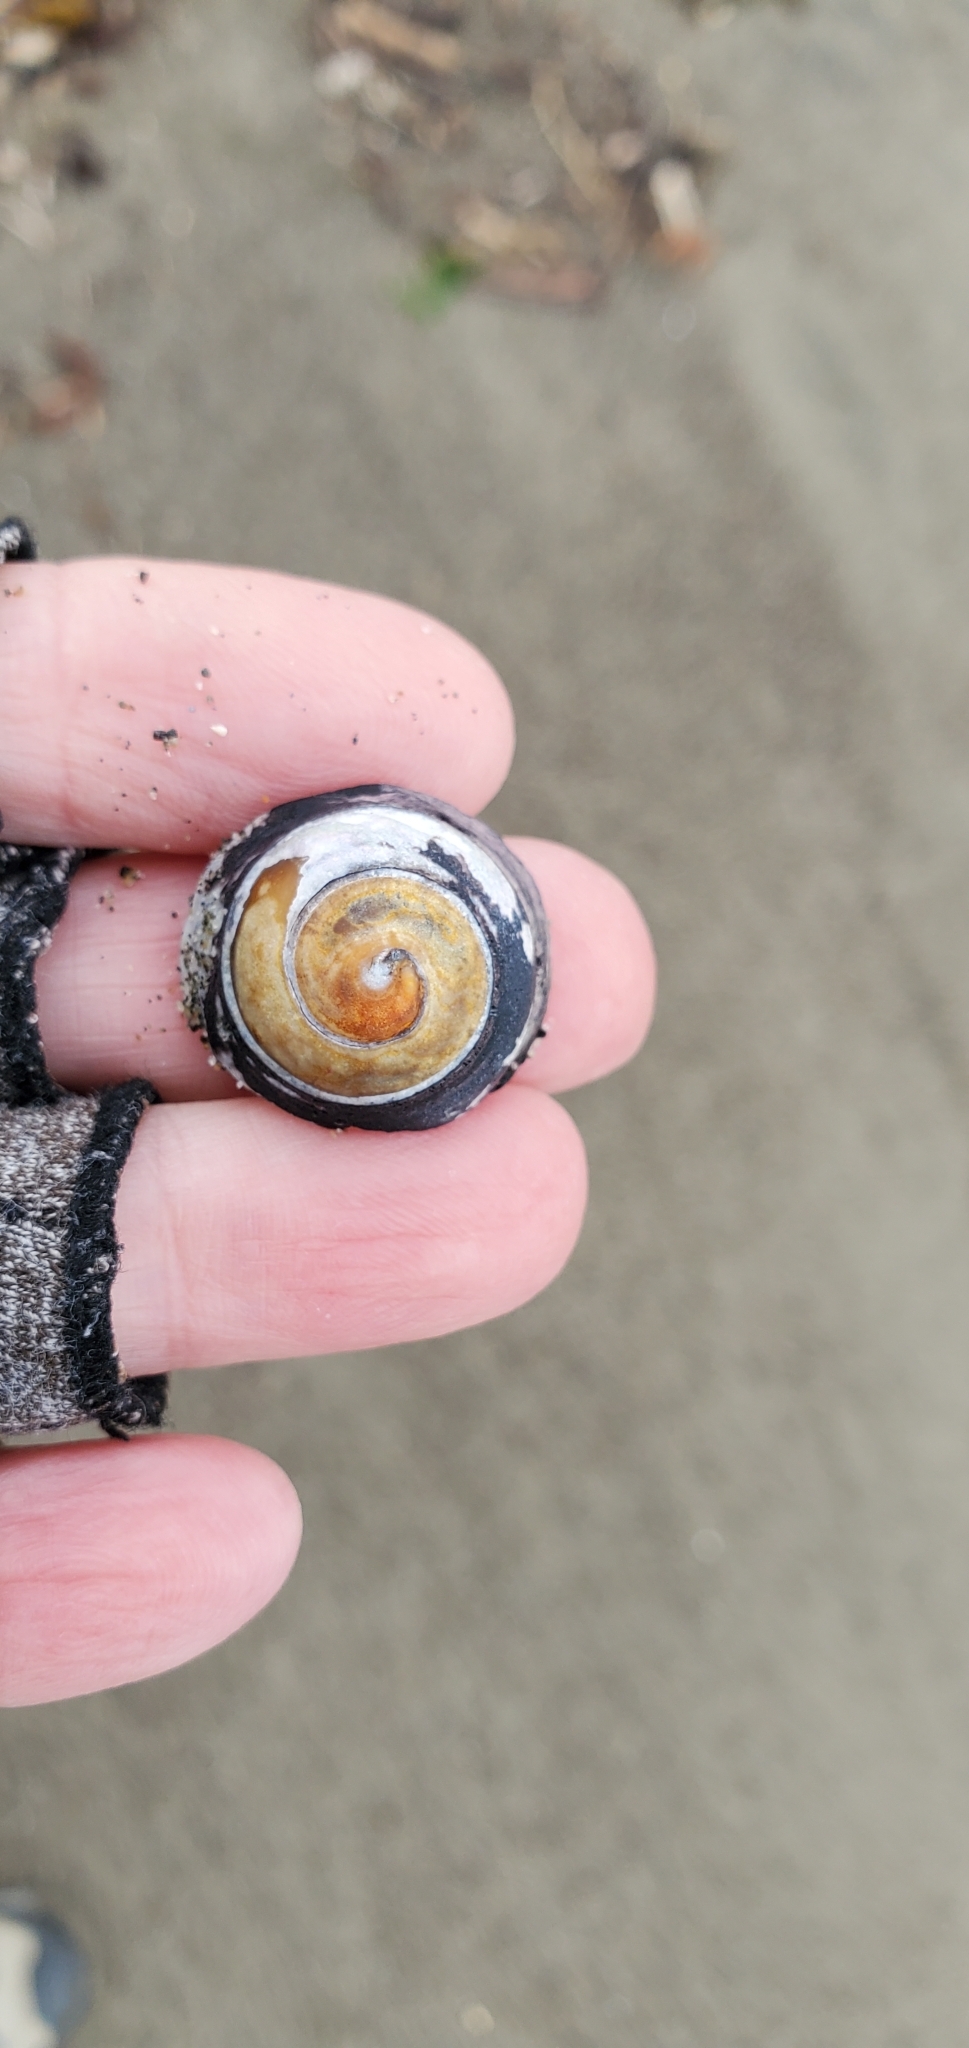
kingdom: Animalia
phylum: Mollusca
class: Gastropoda
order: Trochida
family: Tegulidae
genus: Tegula
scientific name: Tegula funebralis
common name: Black tegula
